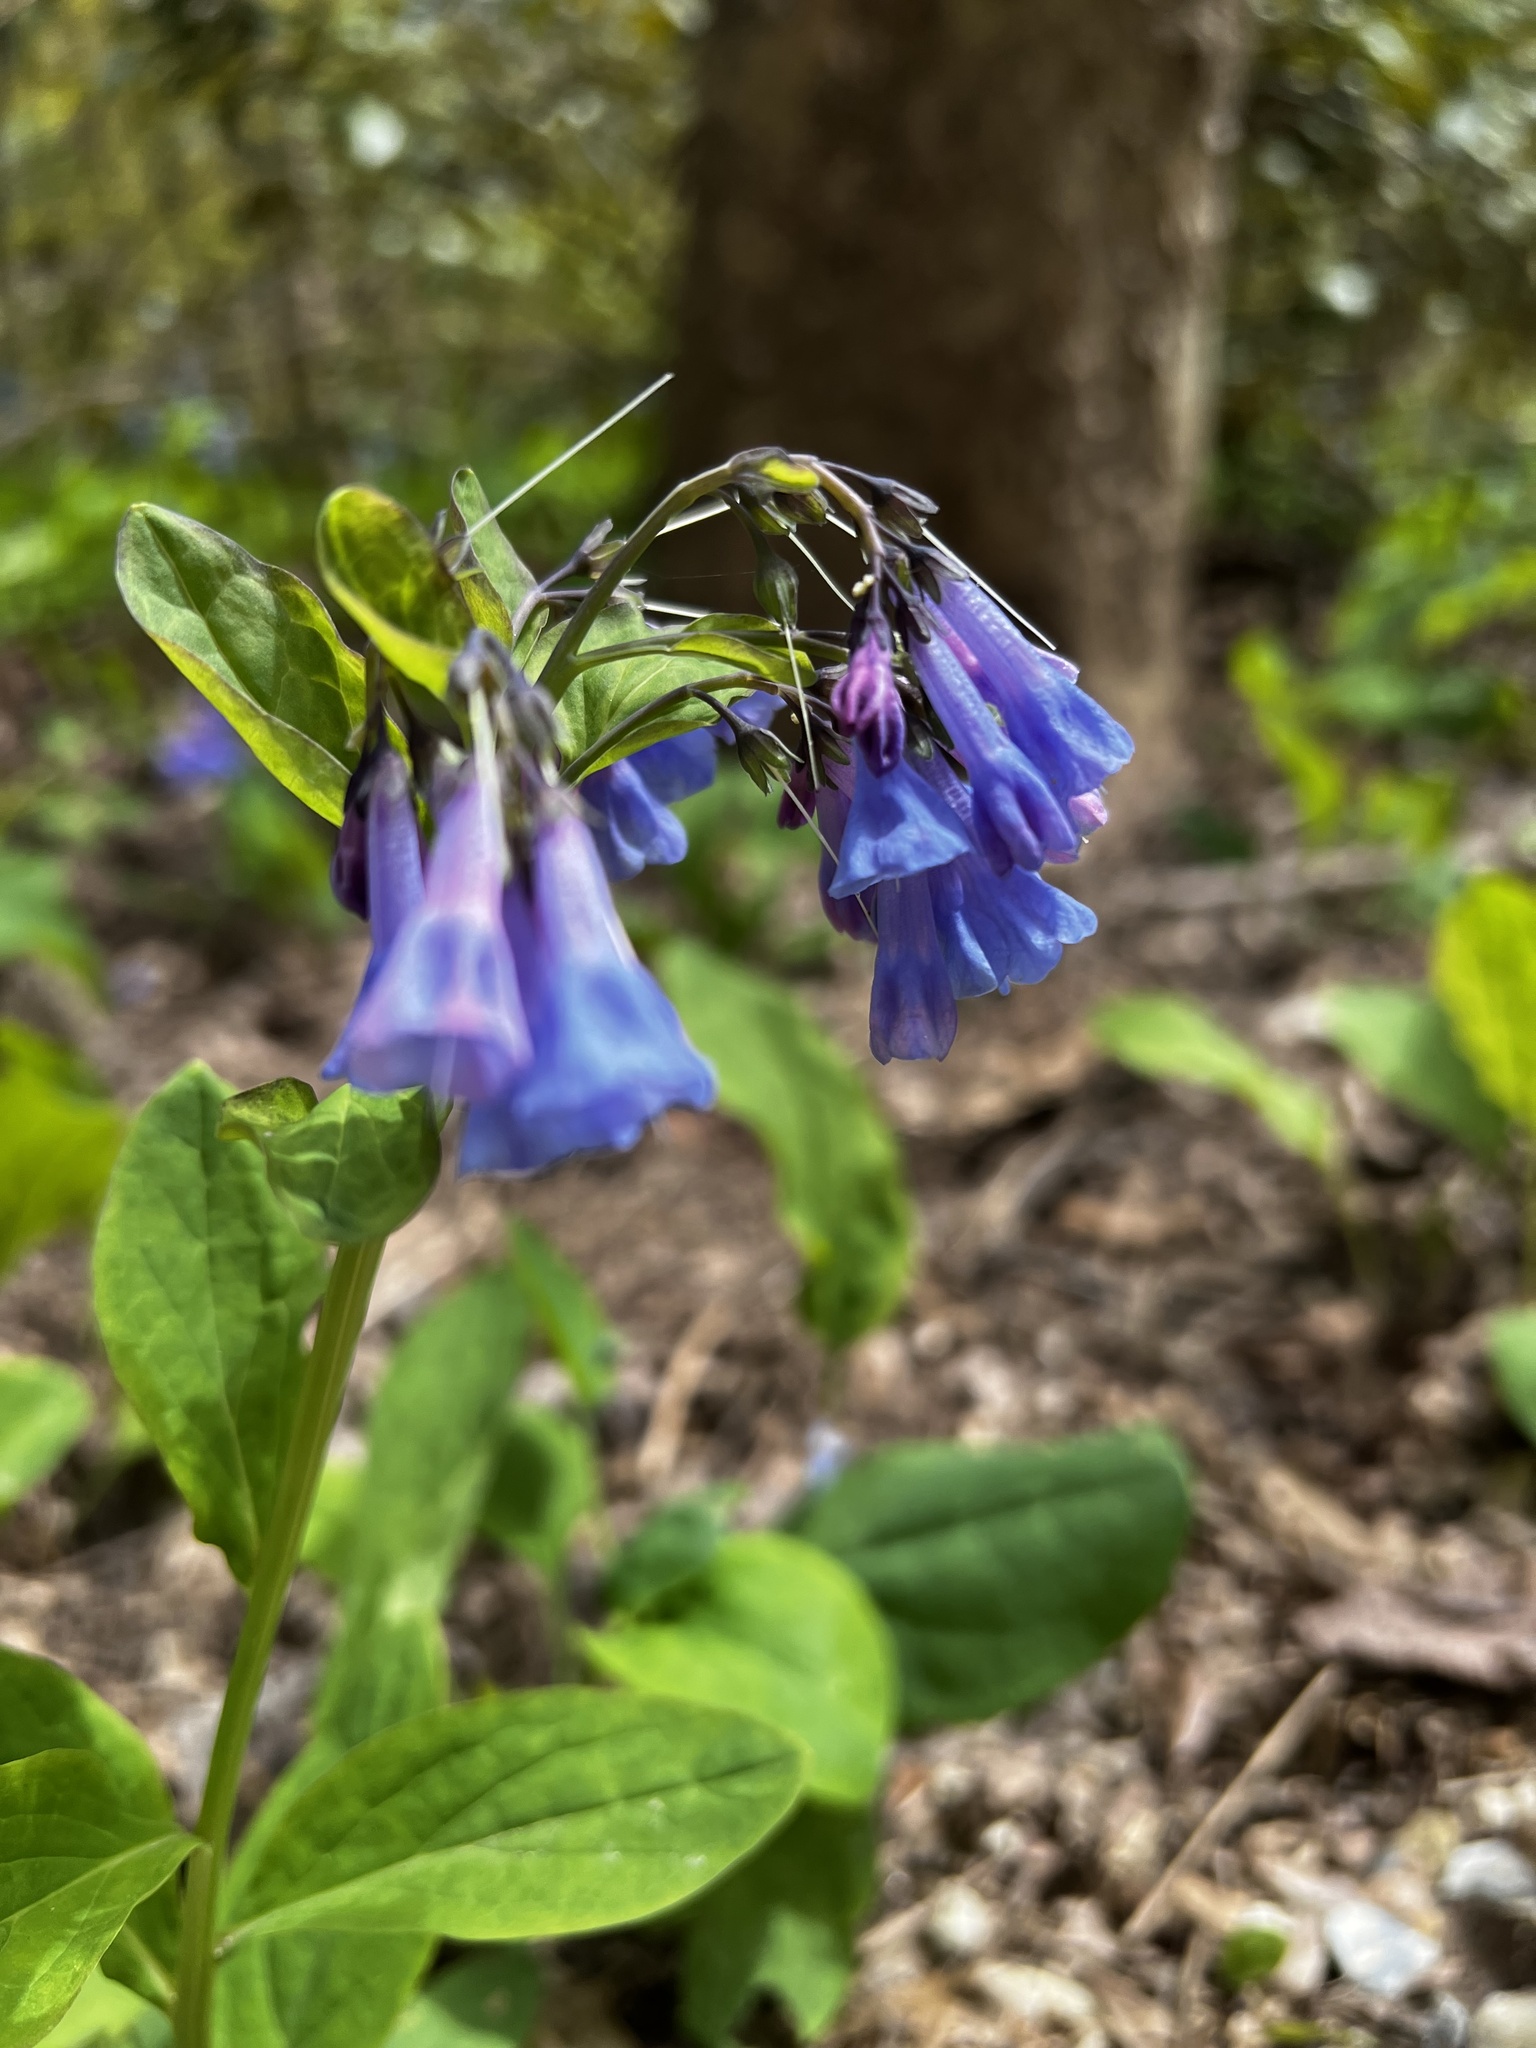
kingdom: Plantae
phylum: Tracheophyta
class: Magnoliopsida
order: Boraginales
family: Boraginaceae
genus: Mertensia
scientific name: Mertensia virginica
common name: Virginia bluebells
